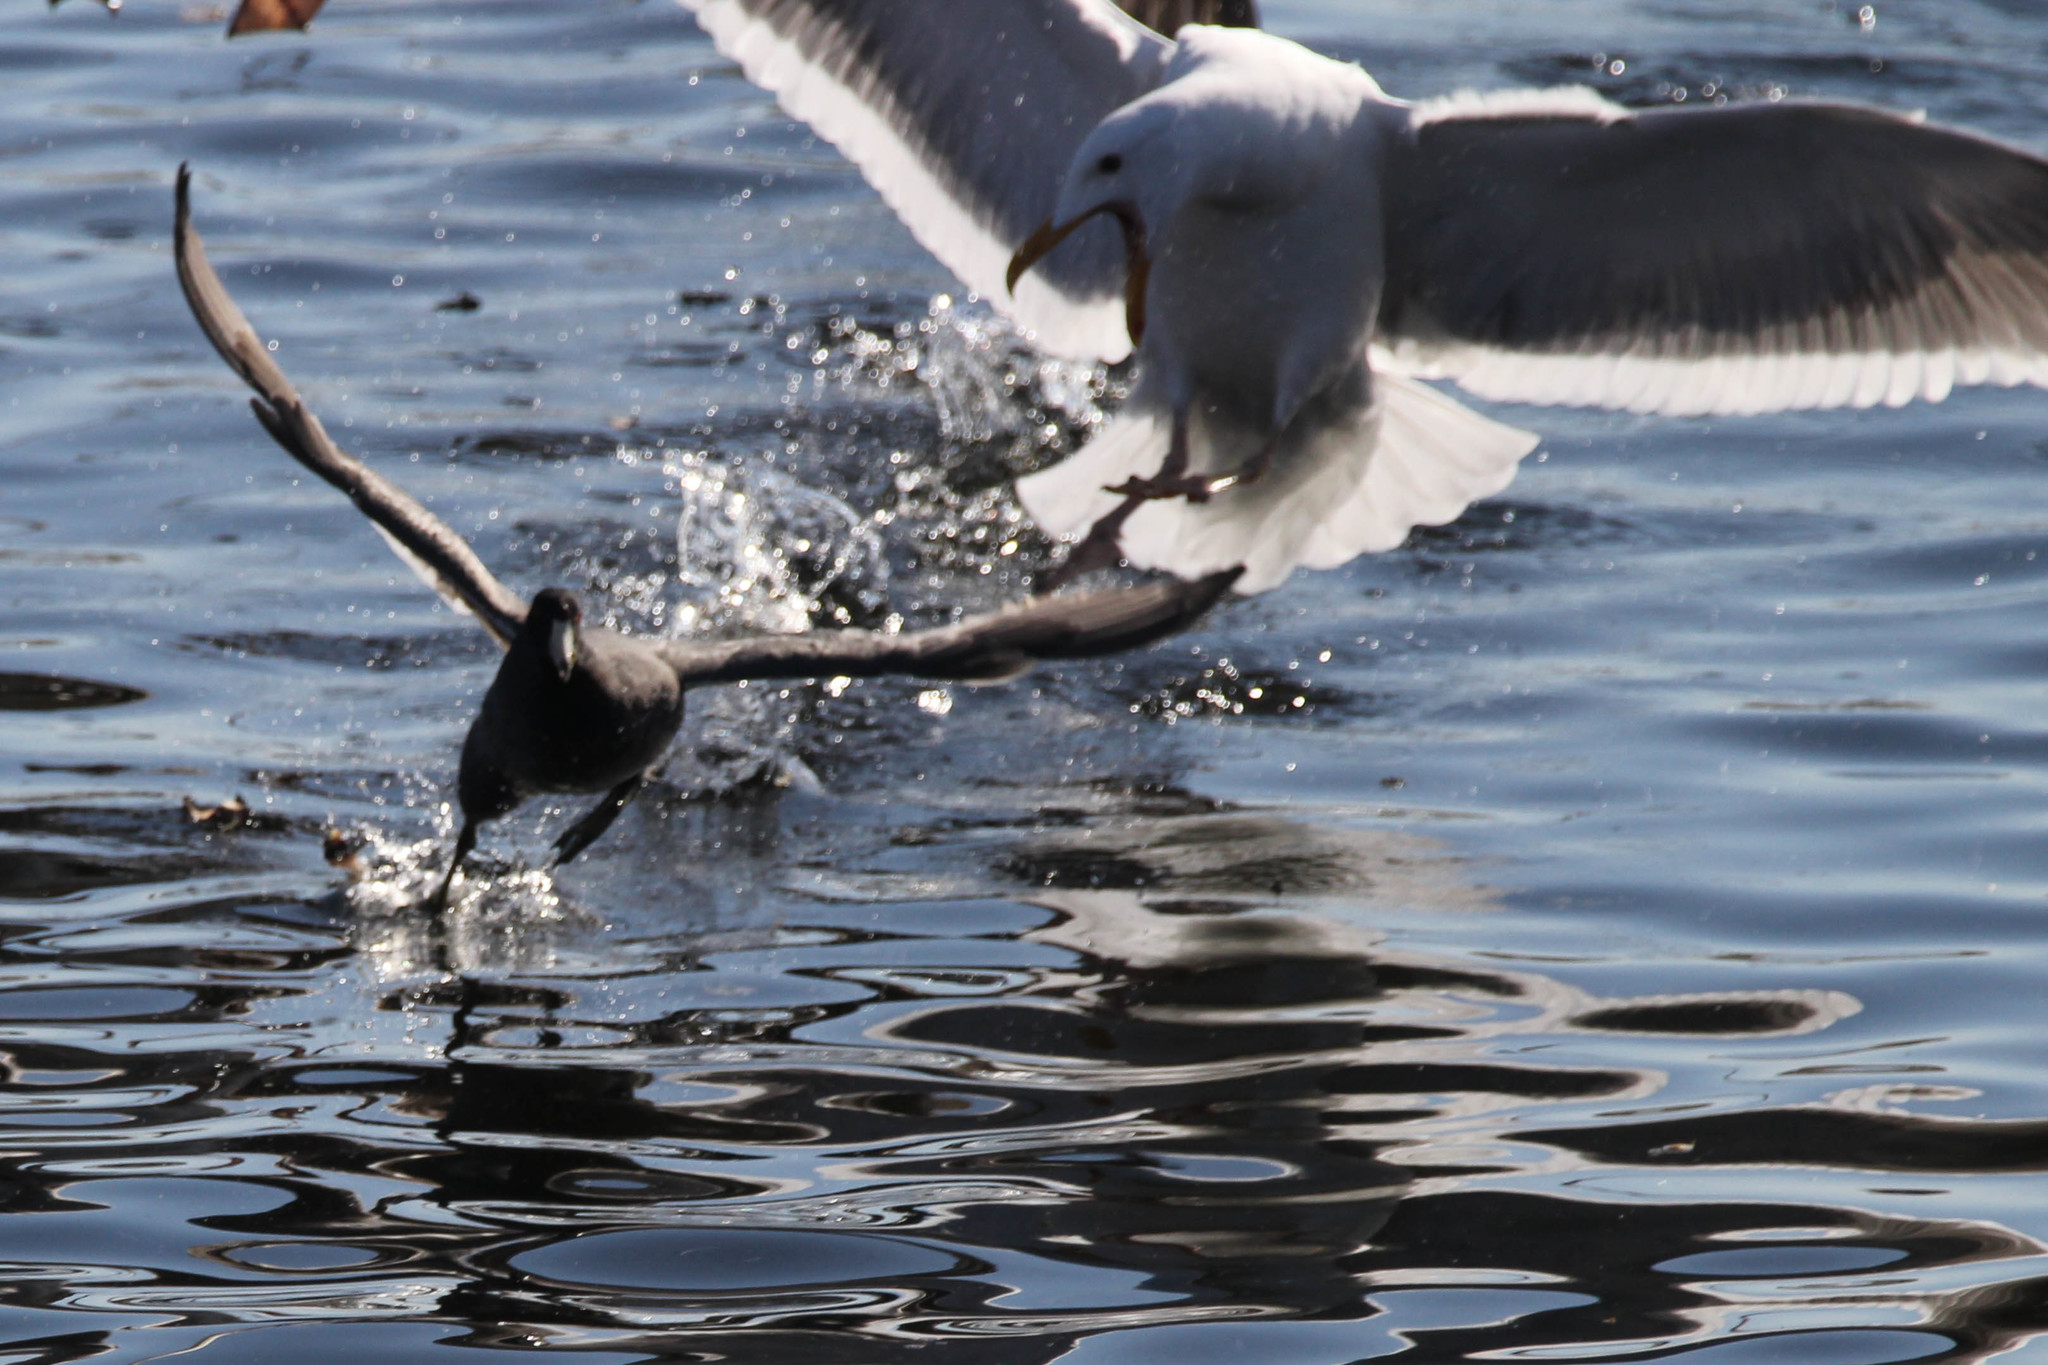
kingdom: Animalia
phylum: Chordata
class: Aves
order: Charadriiformes
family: Laridae
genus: Larus
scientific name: Larus occidentalis
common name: Western gull
